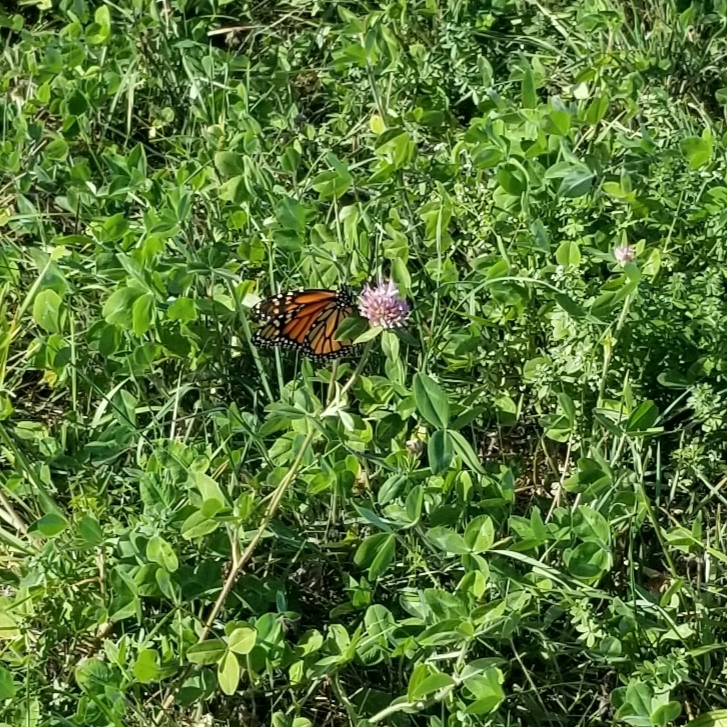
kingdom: Animalia
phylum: Arthropoda
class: Insecta
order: Lepidoptera
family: Nymphalidae
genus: Danaus
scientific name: Danaus plexippus
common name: Monarch
